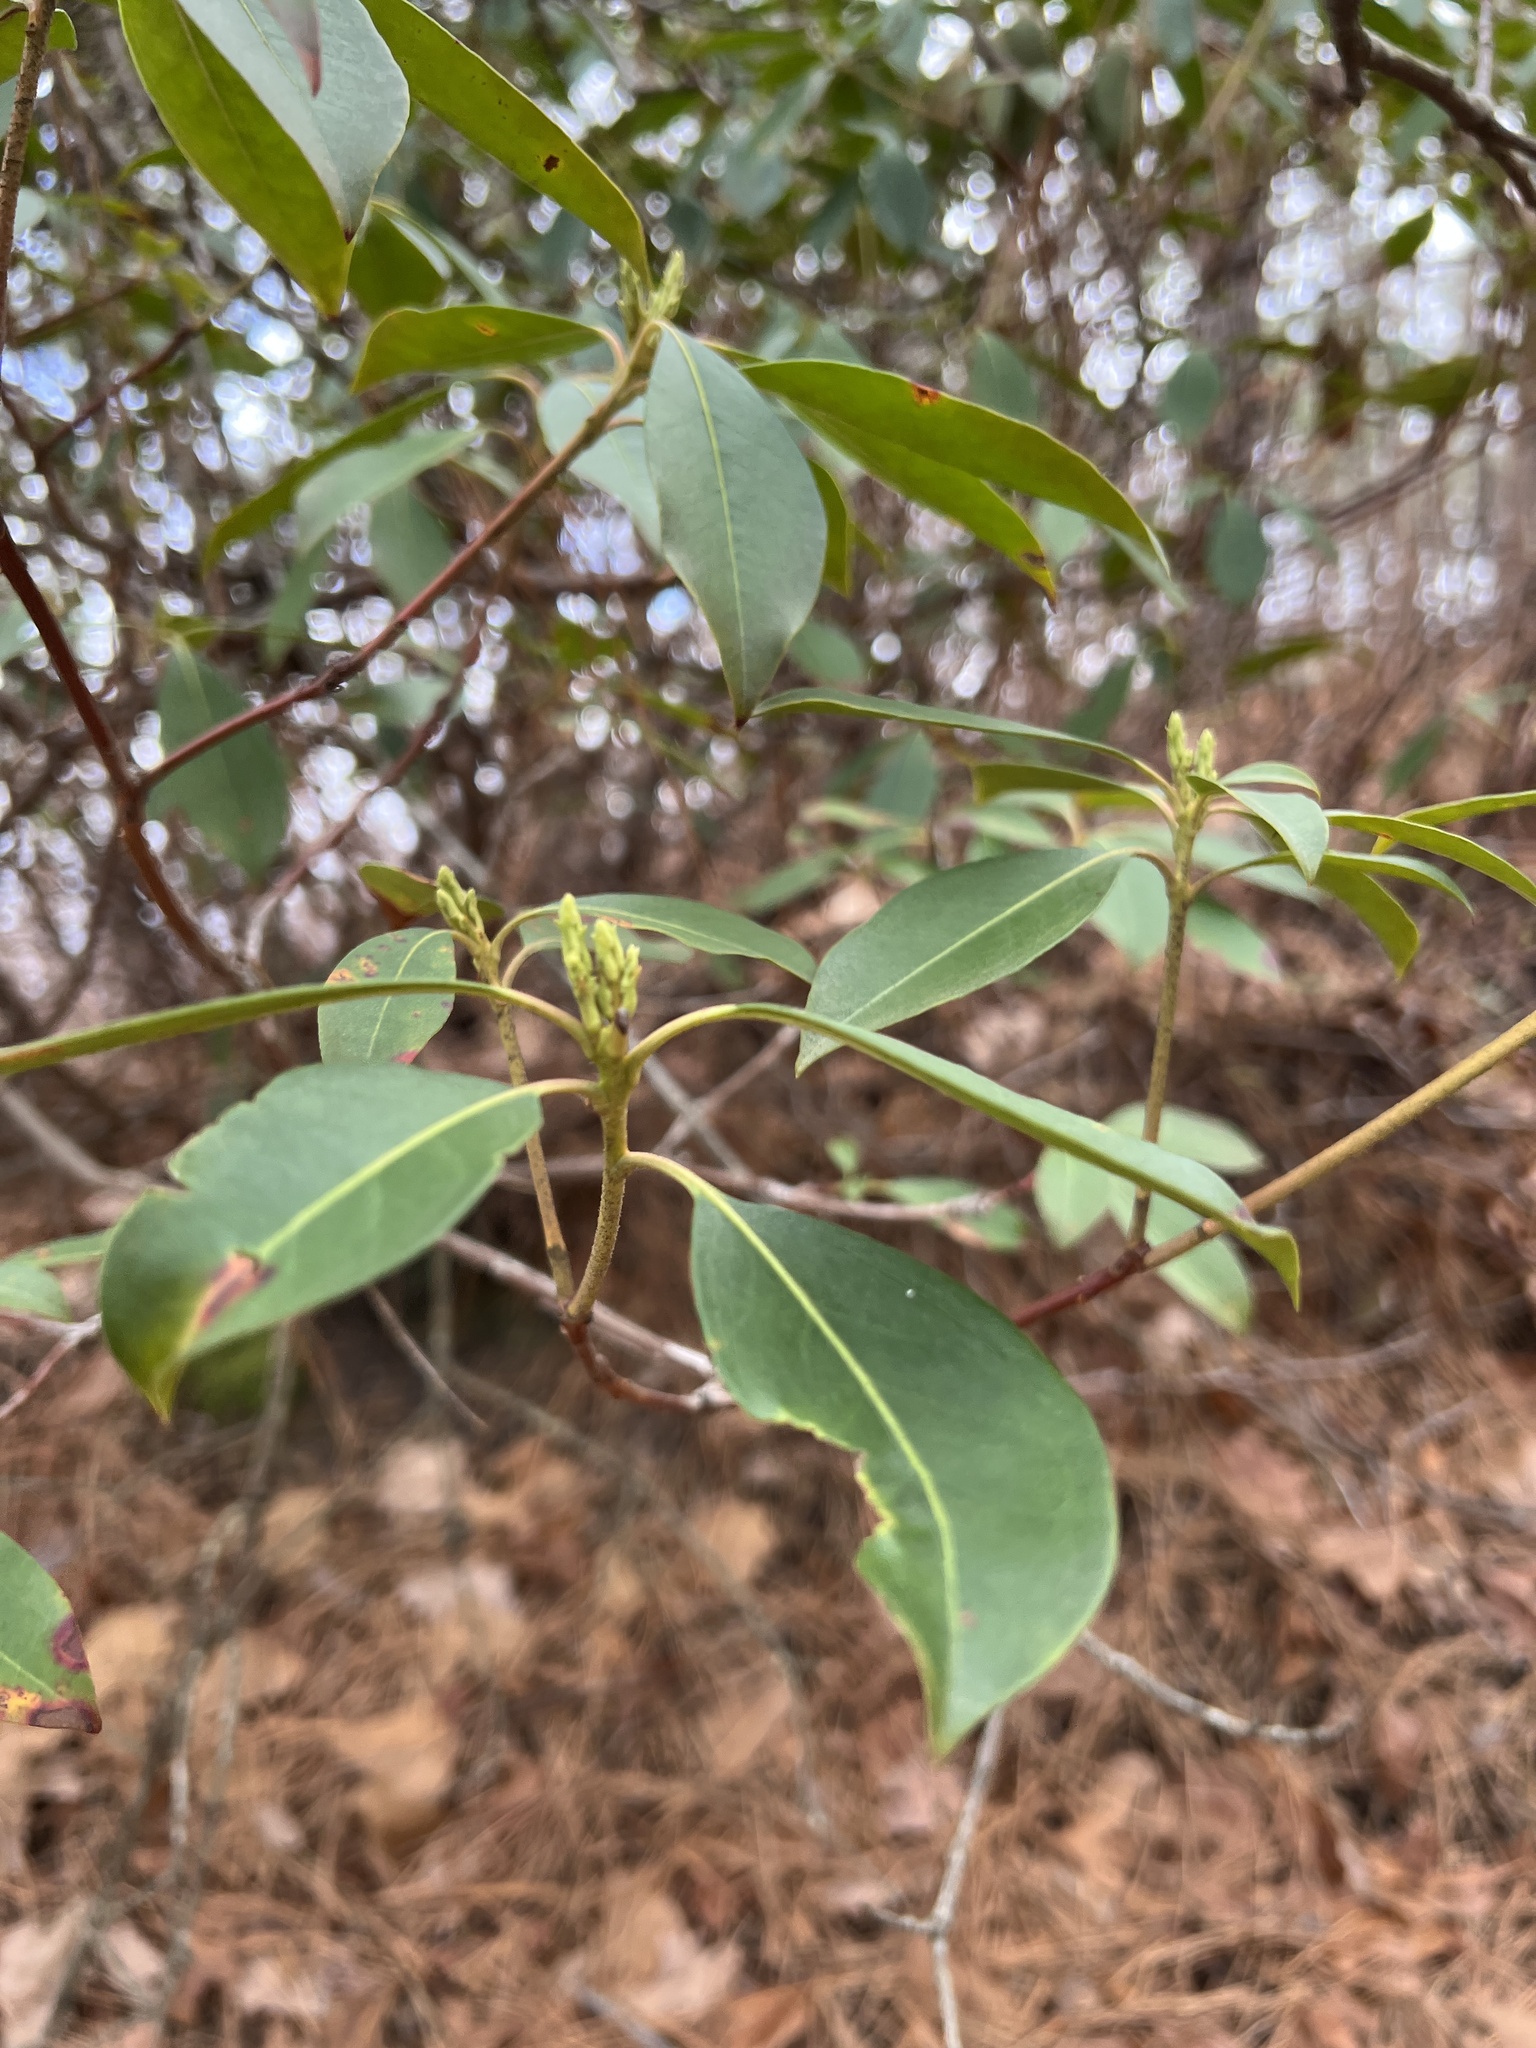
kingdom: Plantae
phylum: Tracheophyta
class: Magnoliopsida
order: Ericales
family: Ericaceae
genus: Kalmia
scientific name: Kalmia latifolia
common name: Mountain-laurel
